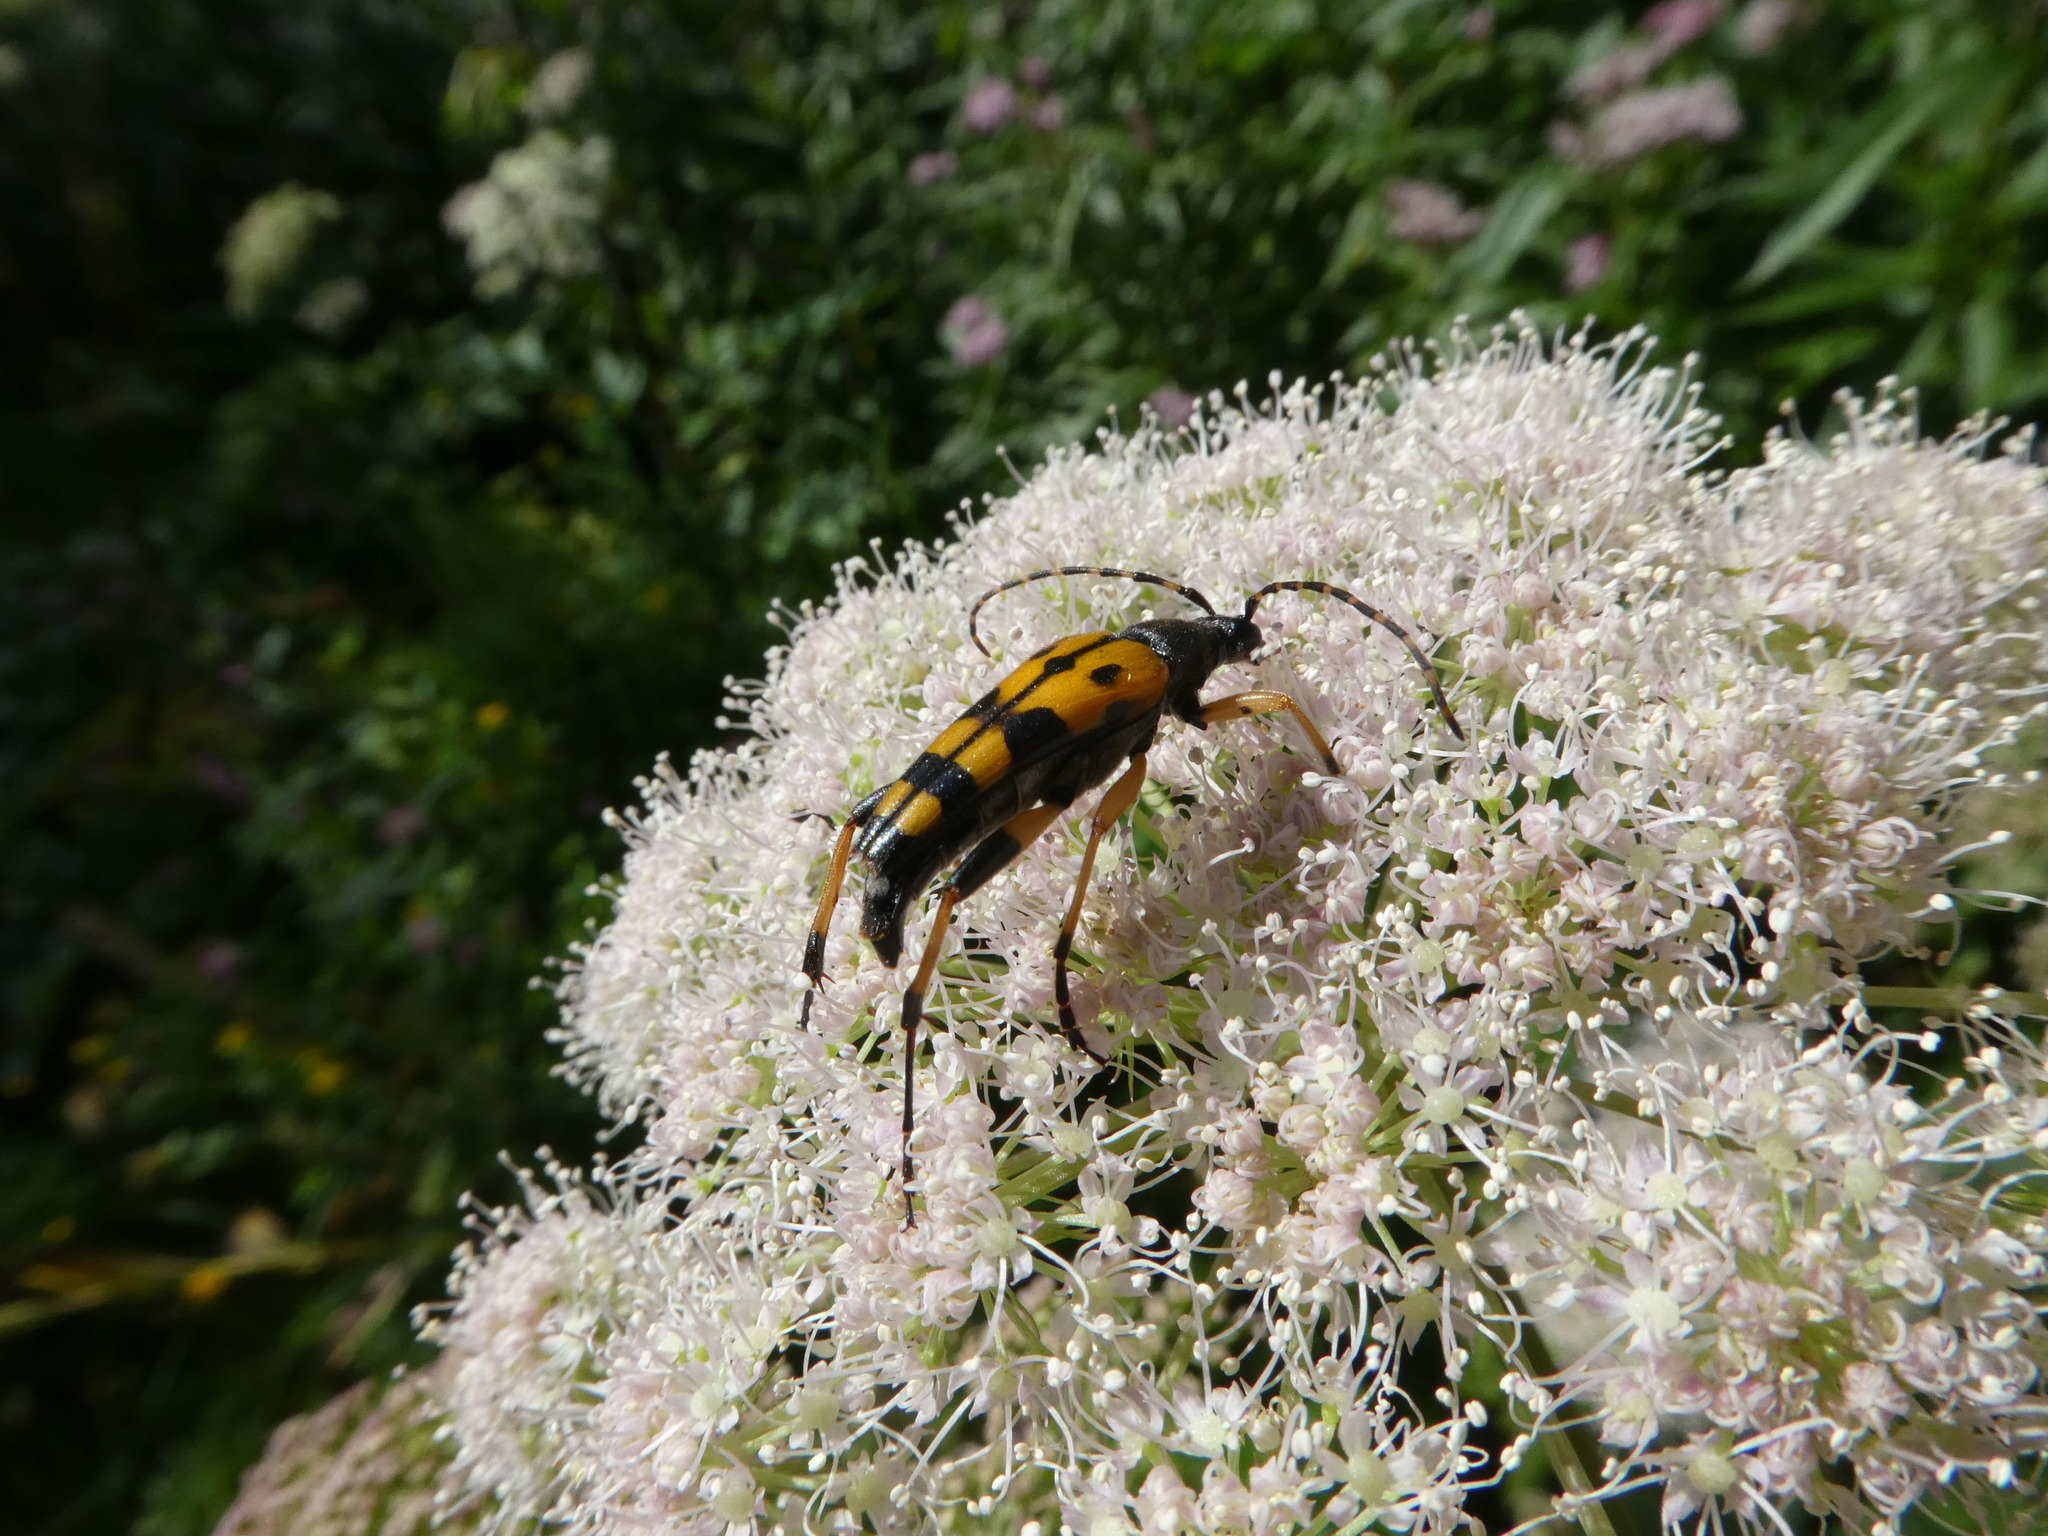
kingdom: Animalia
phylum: Arthropoda
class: Insecta
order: Coleoptera
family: Cerambycidae
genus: Rutpela
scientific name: Rutpela maculata
